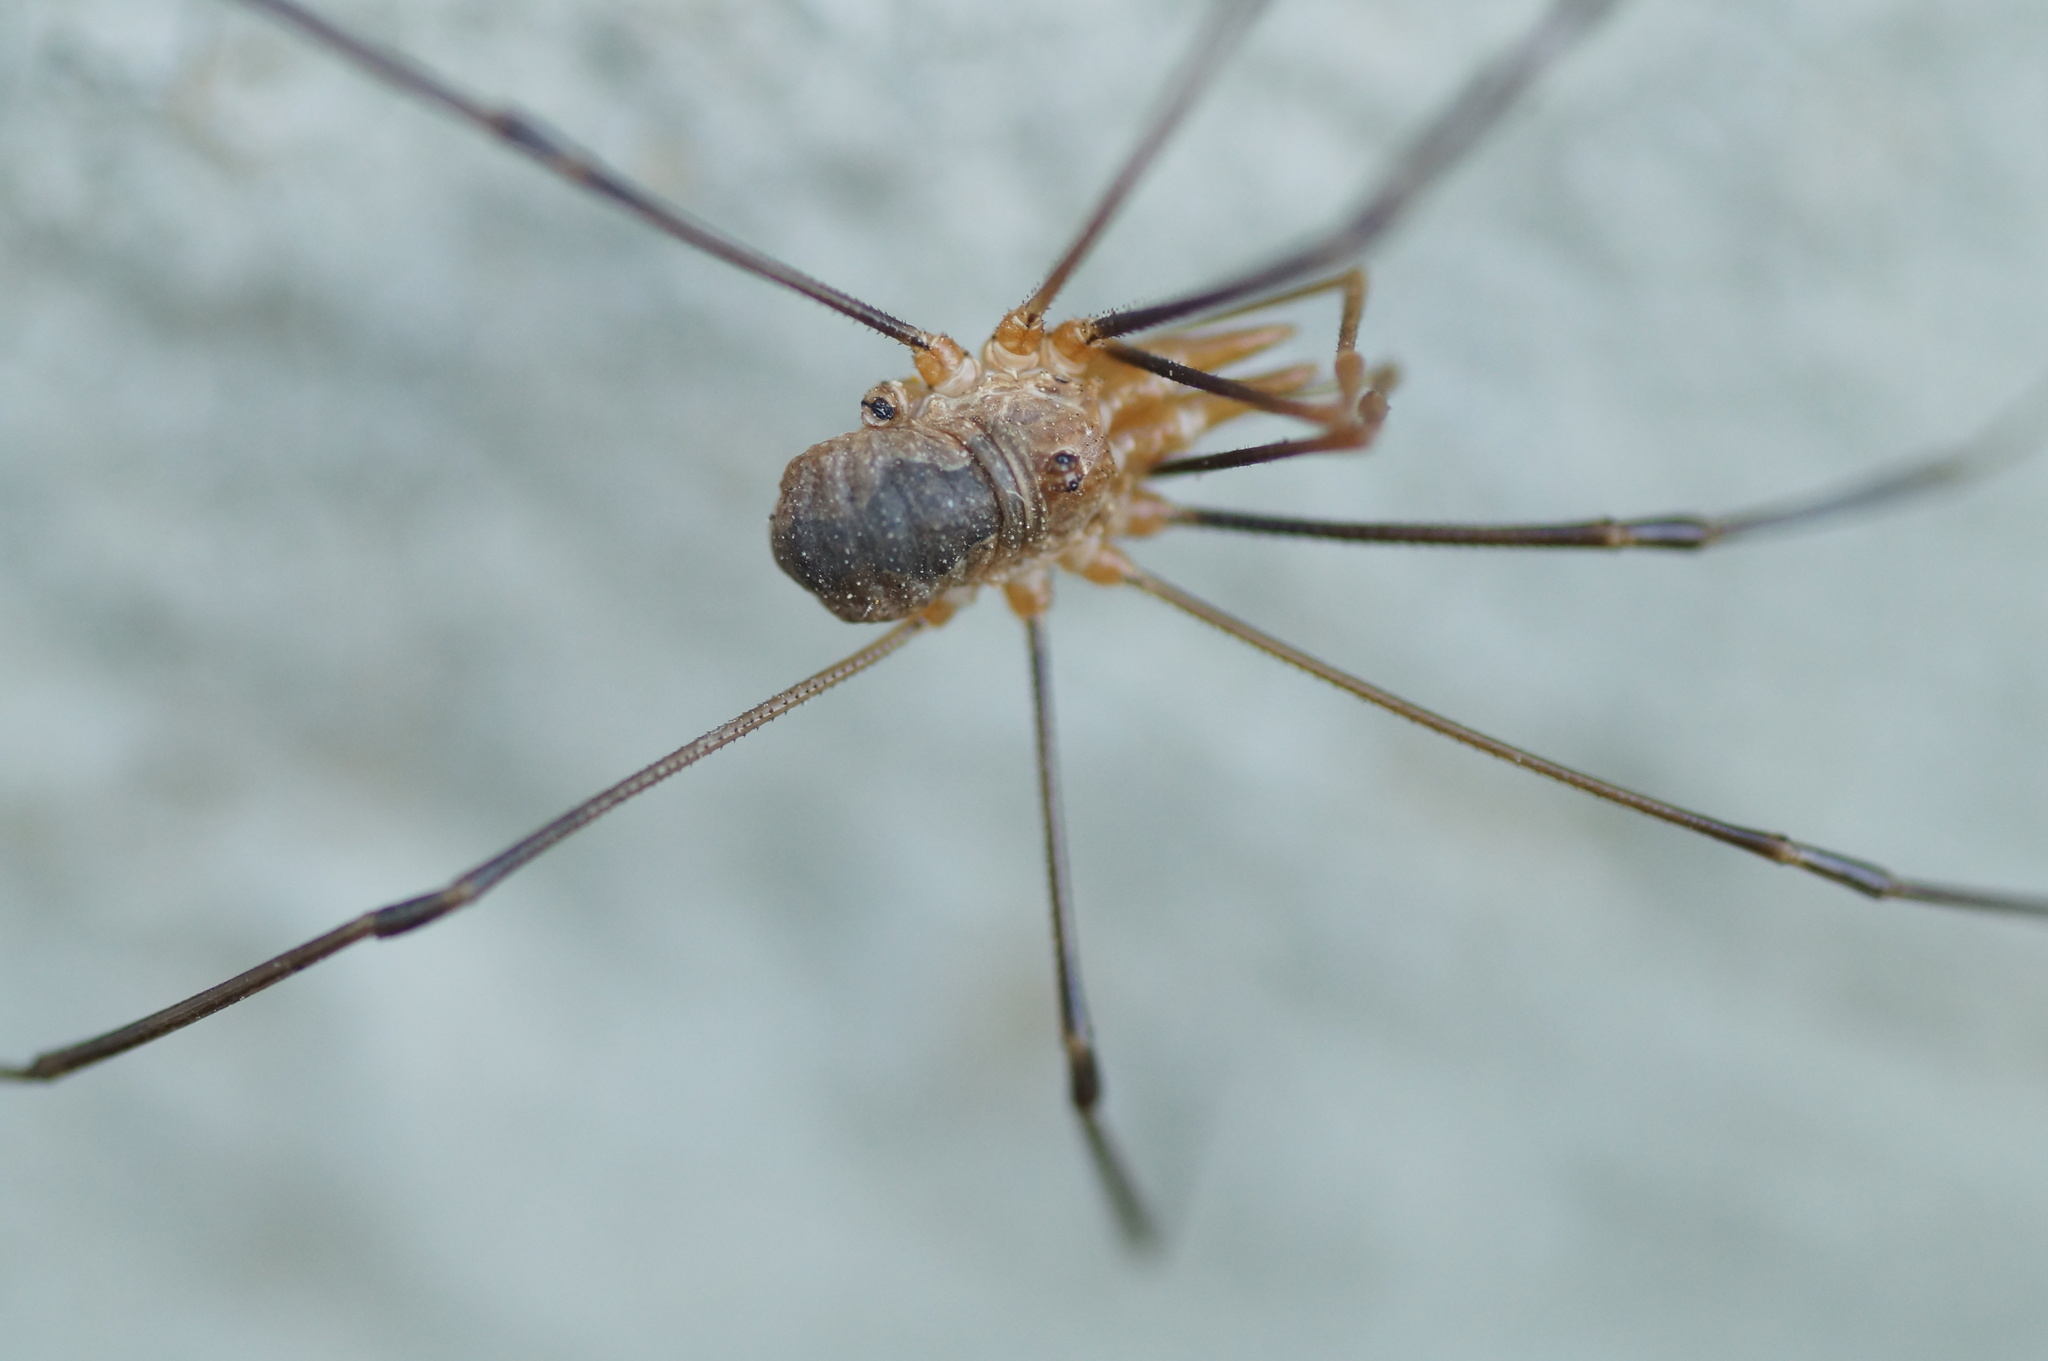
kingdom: Animalia
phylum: Arthropoda
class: Arachnida
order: Opiliones
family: Phalangiidae
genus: Phalangium
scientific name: Phalangium opilio
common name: Daddy longleg
